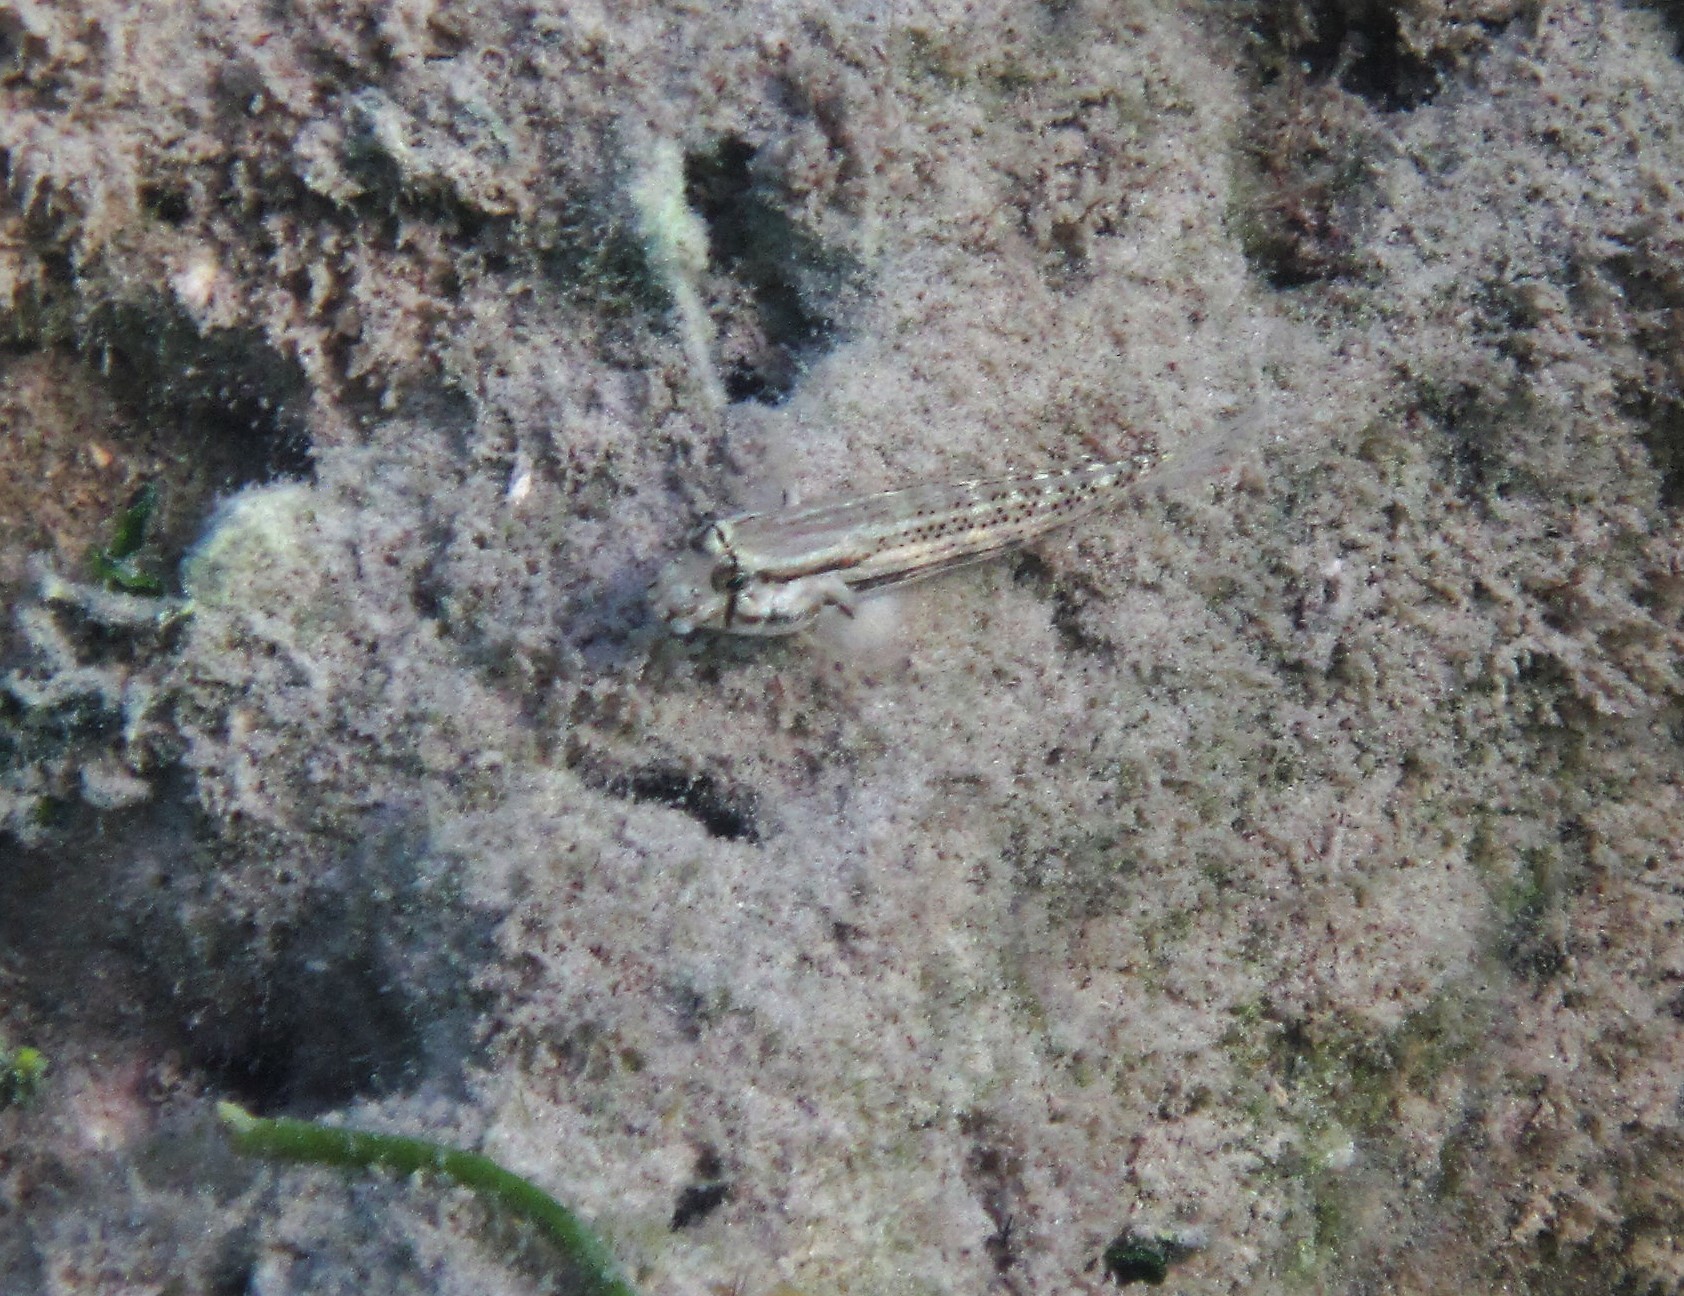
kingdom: Animalia
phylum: Chordata
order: Perciformes
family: Gobiidae
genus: Gnatholepis
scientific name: Gnatholepis thompsoni
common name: Goldspot goby
